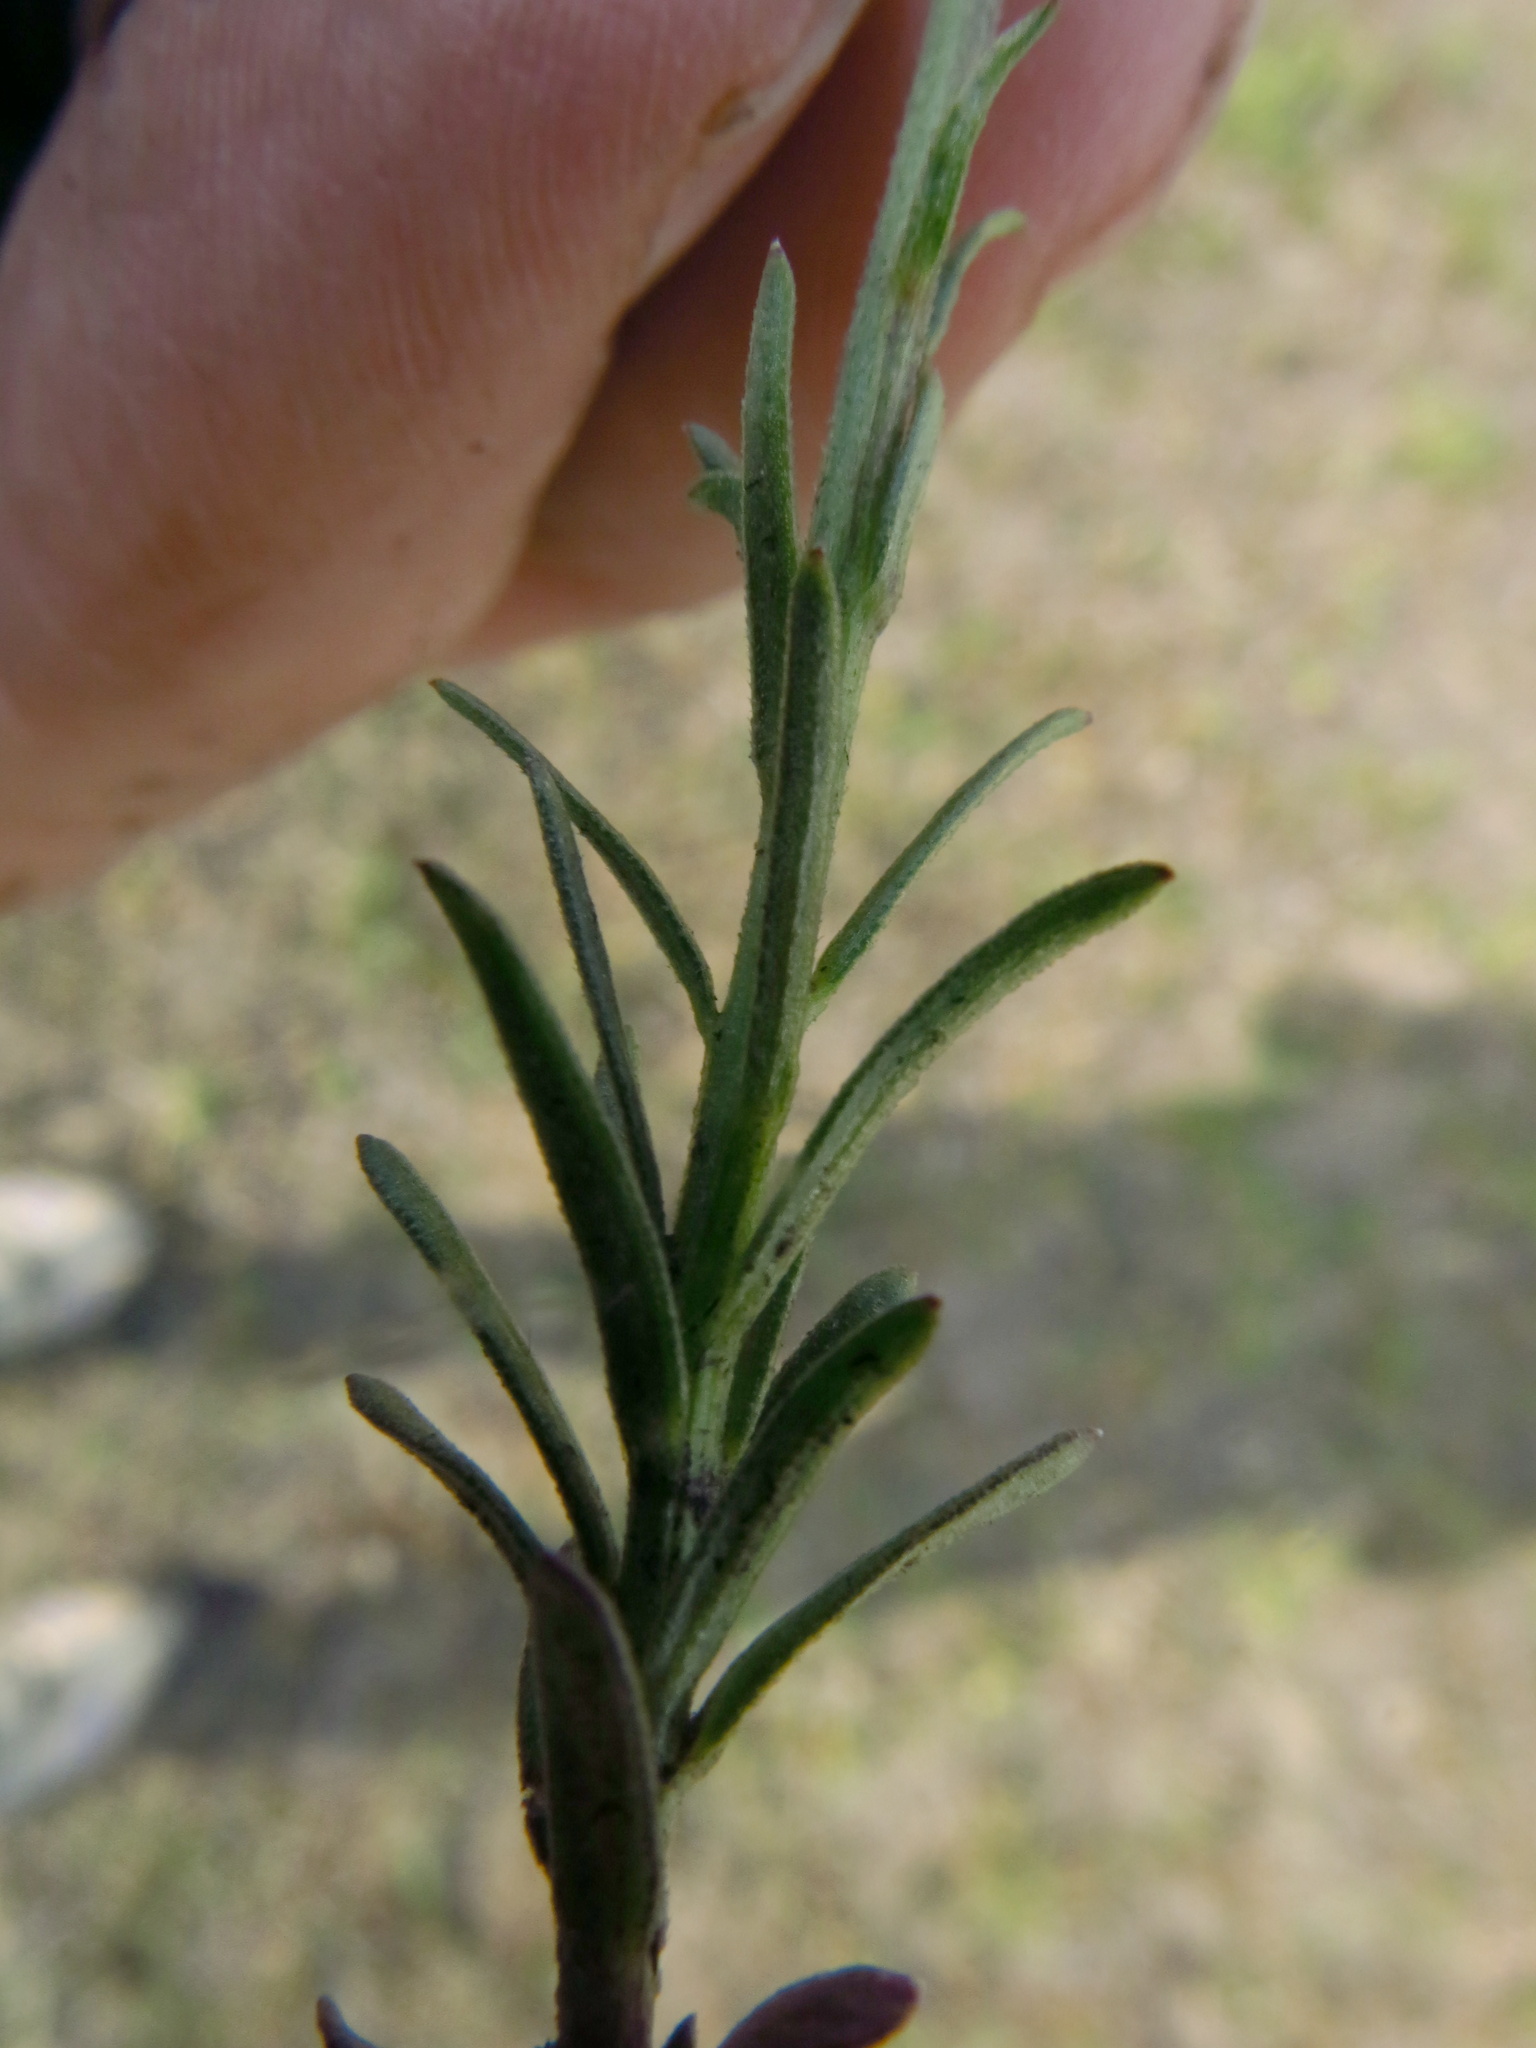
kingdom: Plantae
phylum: Tracheophyta
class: Magnoliopsida
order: Asterales
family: Campanulaceae
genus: Monopsis
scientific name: Monopsis decipiens
